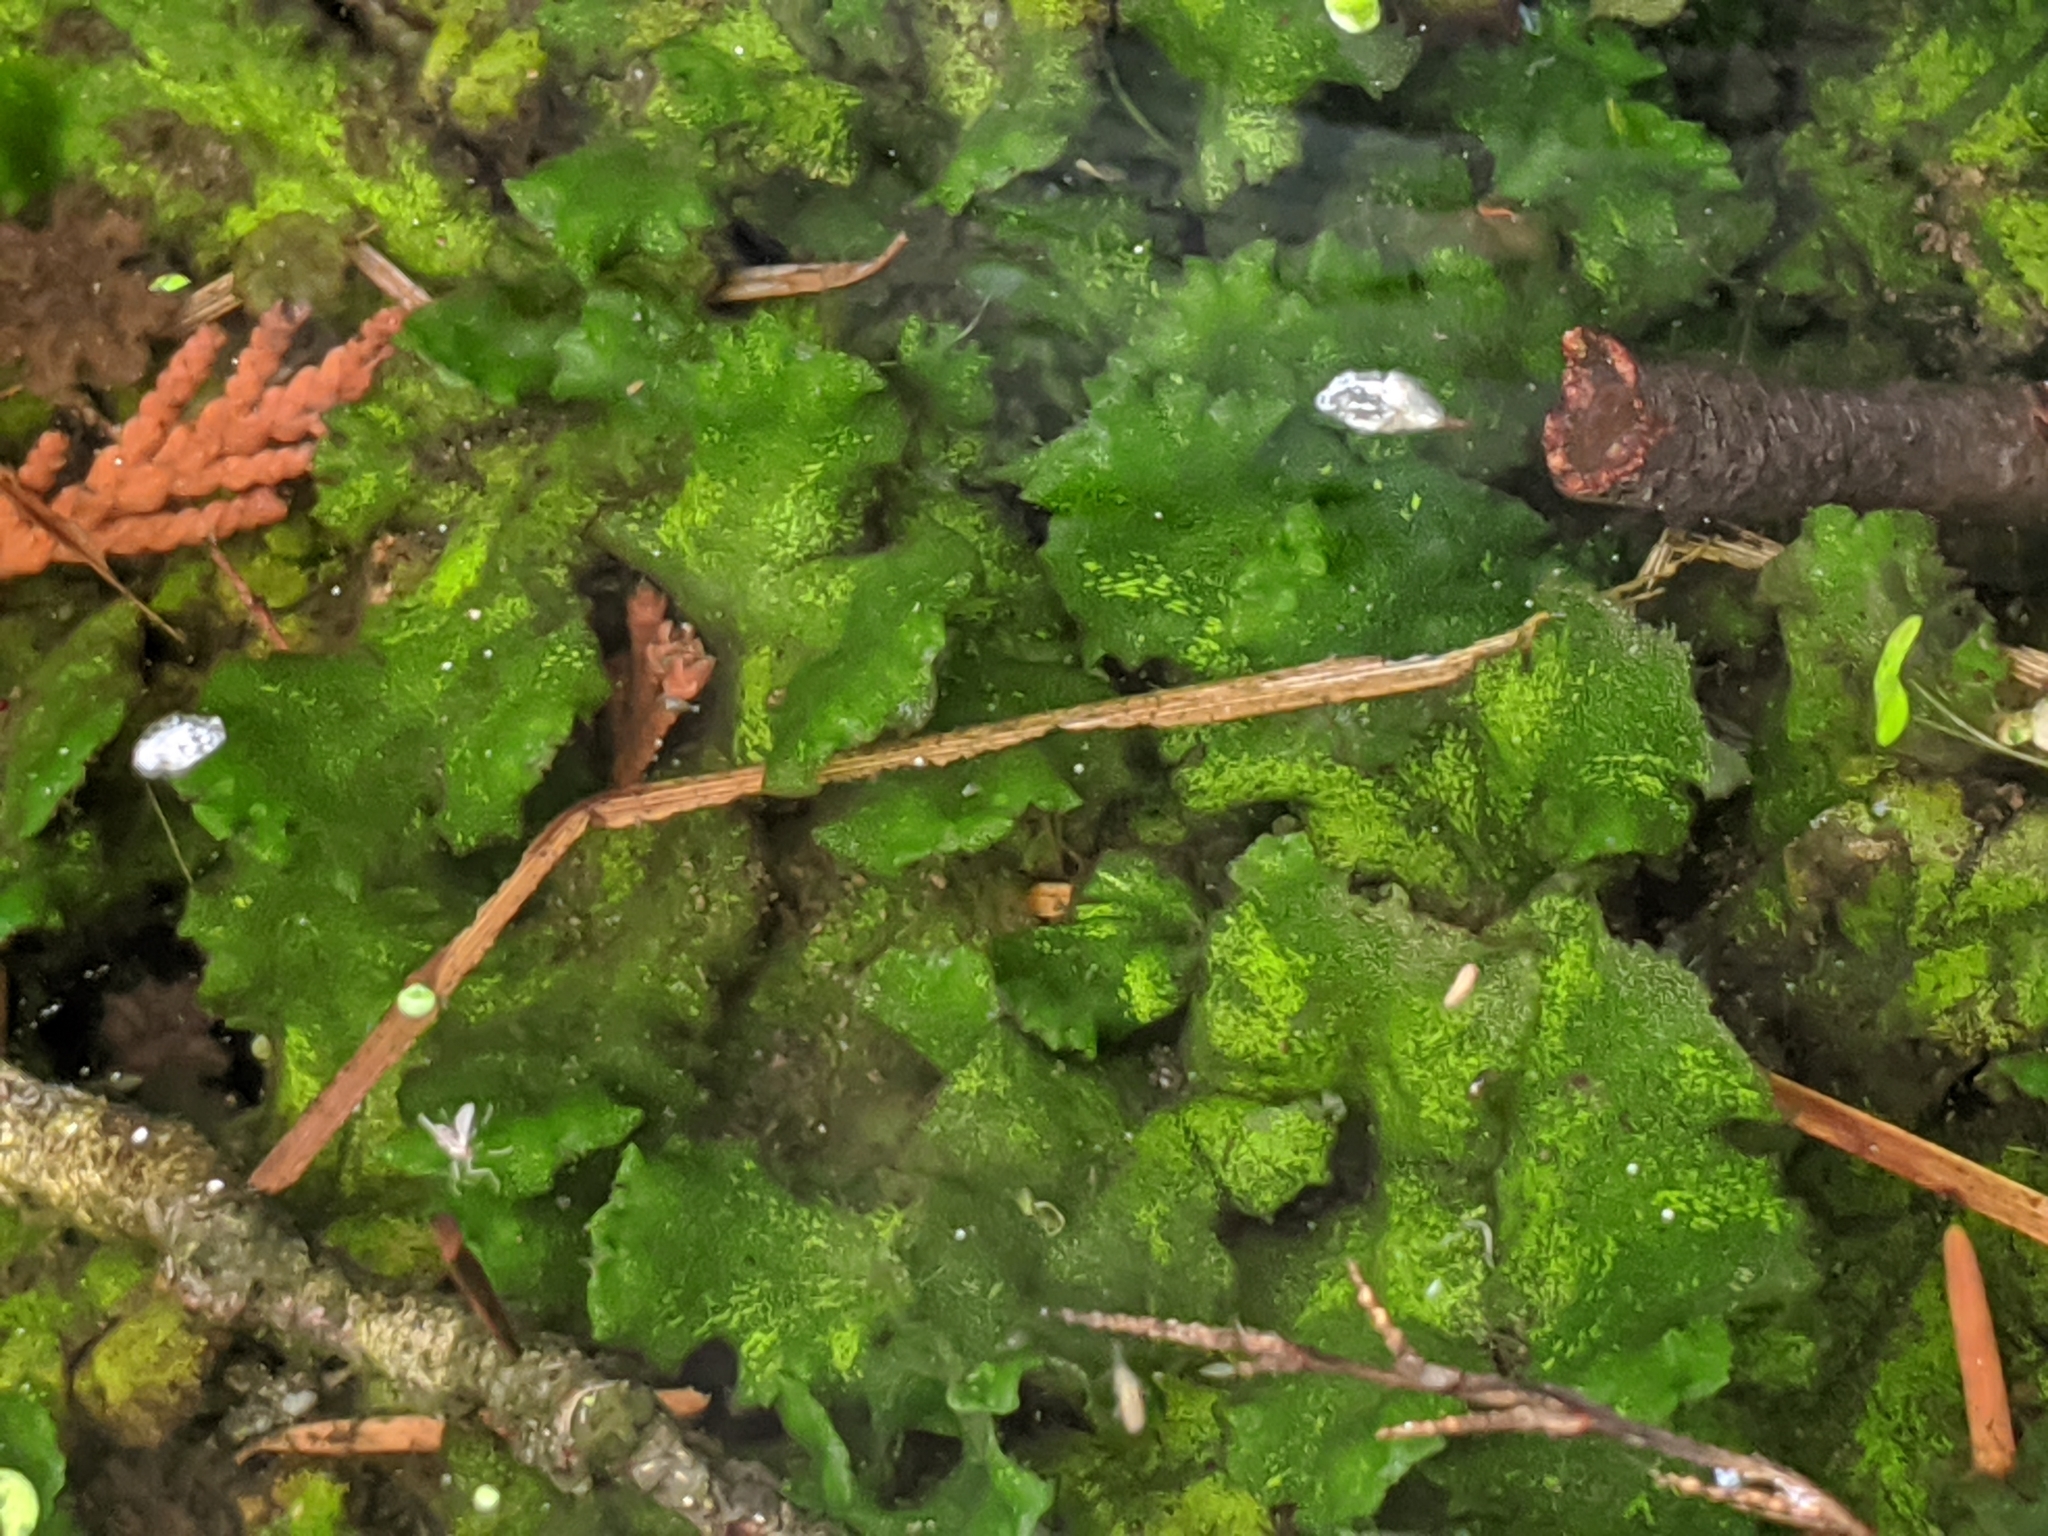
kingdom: Plantae
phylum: Marchantiophyta
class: Jungermanniopsida
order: Pelliales
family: Pelliaceae
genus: Pellia
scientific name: Pellia neesiana
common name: Nees  pellia
